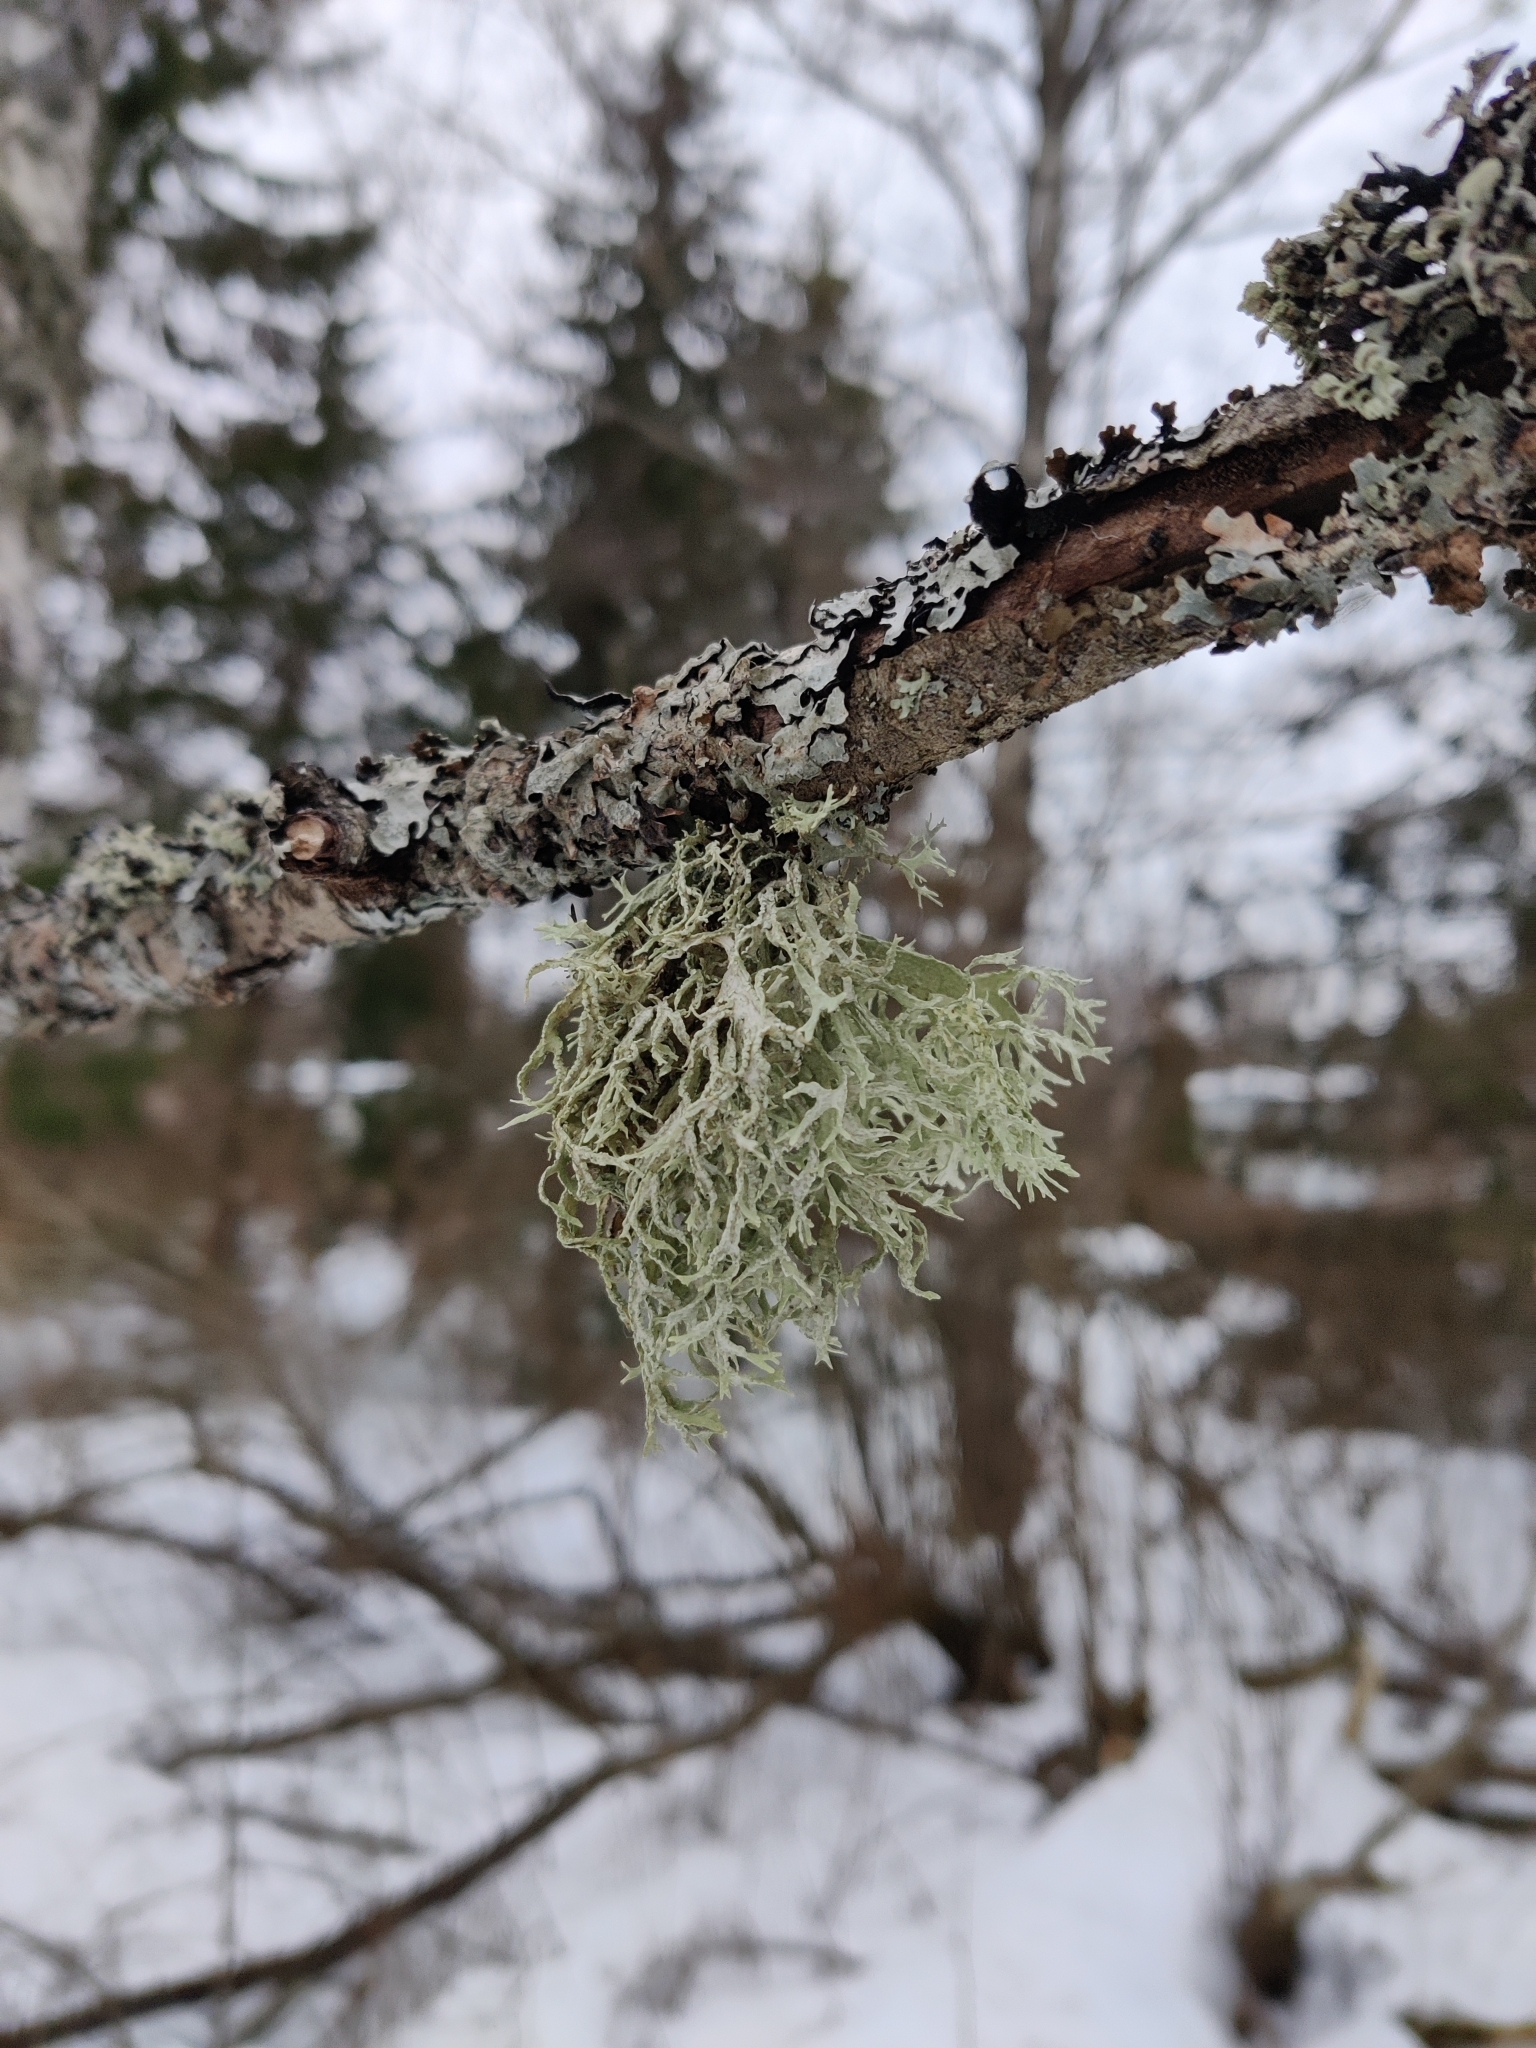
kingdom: Fungi
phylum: Ascomycota
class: Lecanoromycetes
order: Lecanorales
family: Parmeliaceae
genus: Evernia
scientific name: Evernia prunastri
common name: Oak moss
